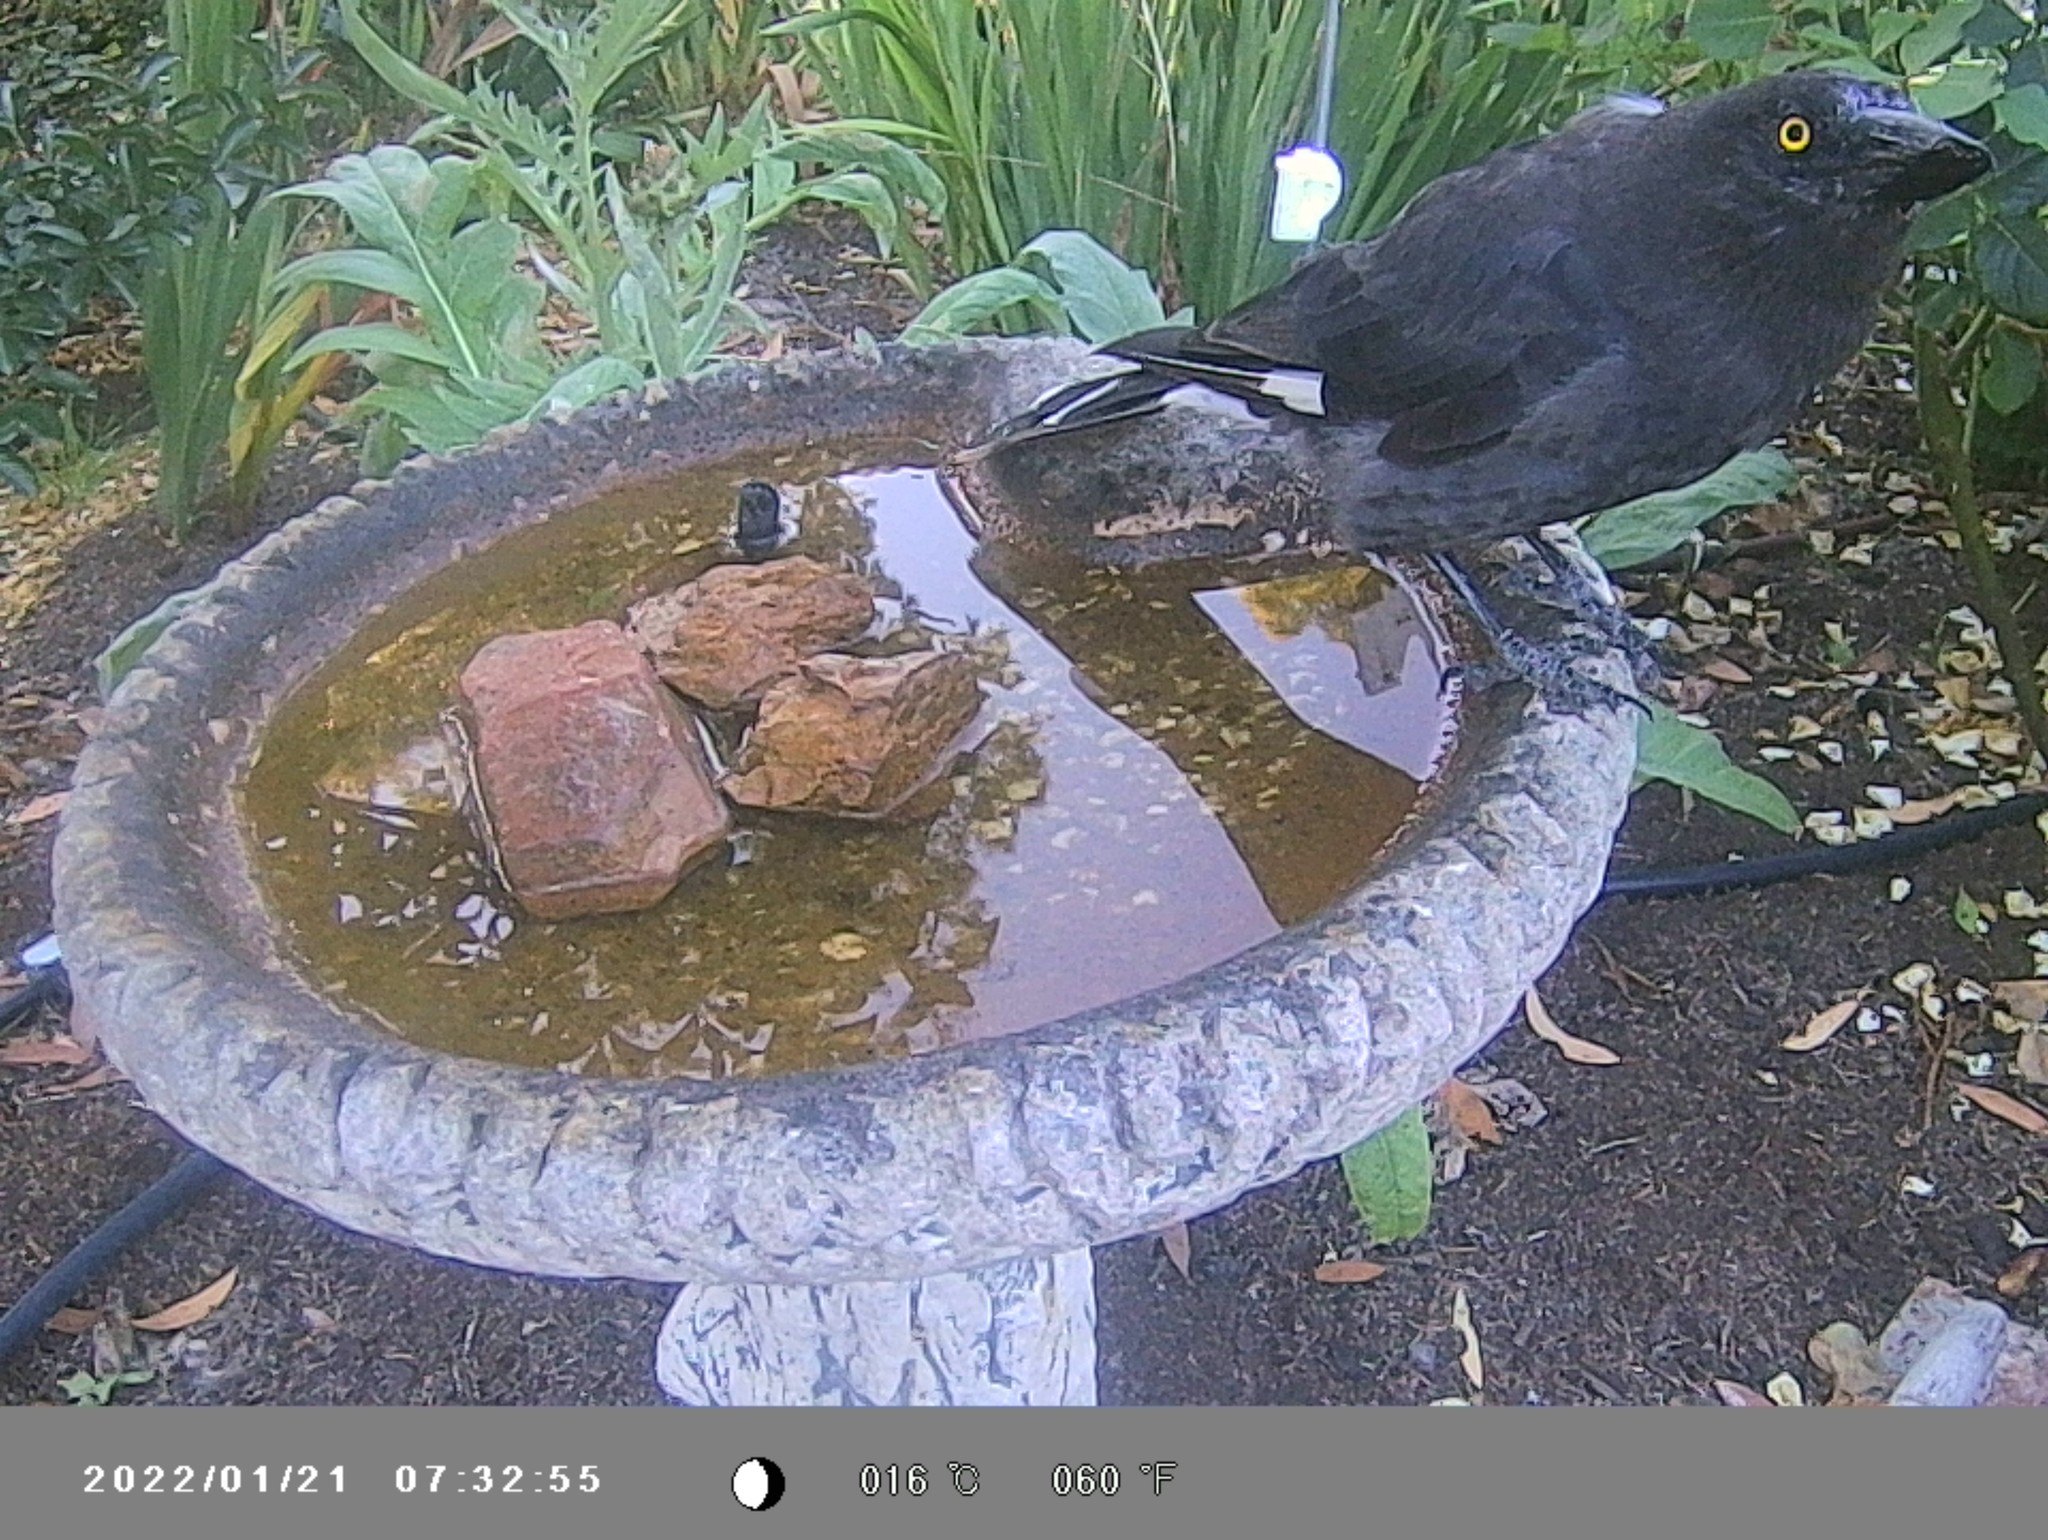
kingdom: Animalia
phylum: Chordata
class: Aves
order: Passeriformes
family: Cracticidae
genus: Strepera
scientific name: Strepera graculina
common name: Pied currawong
